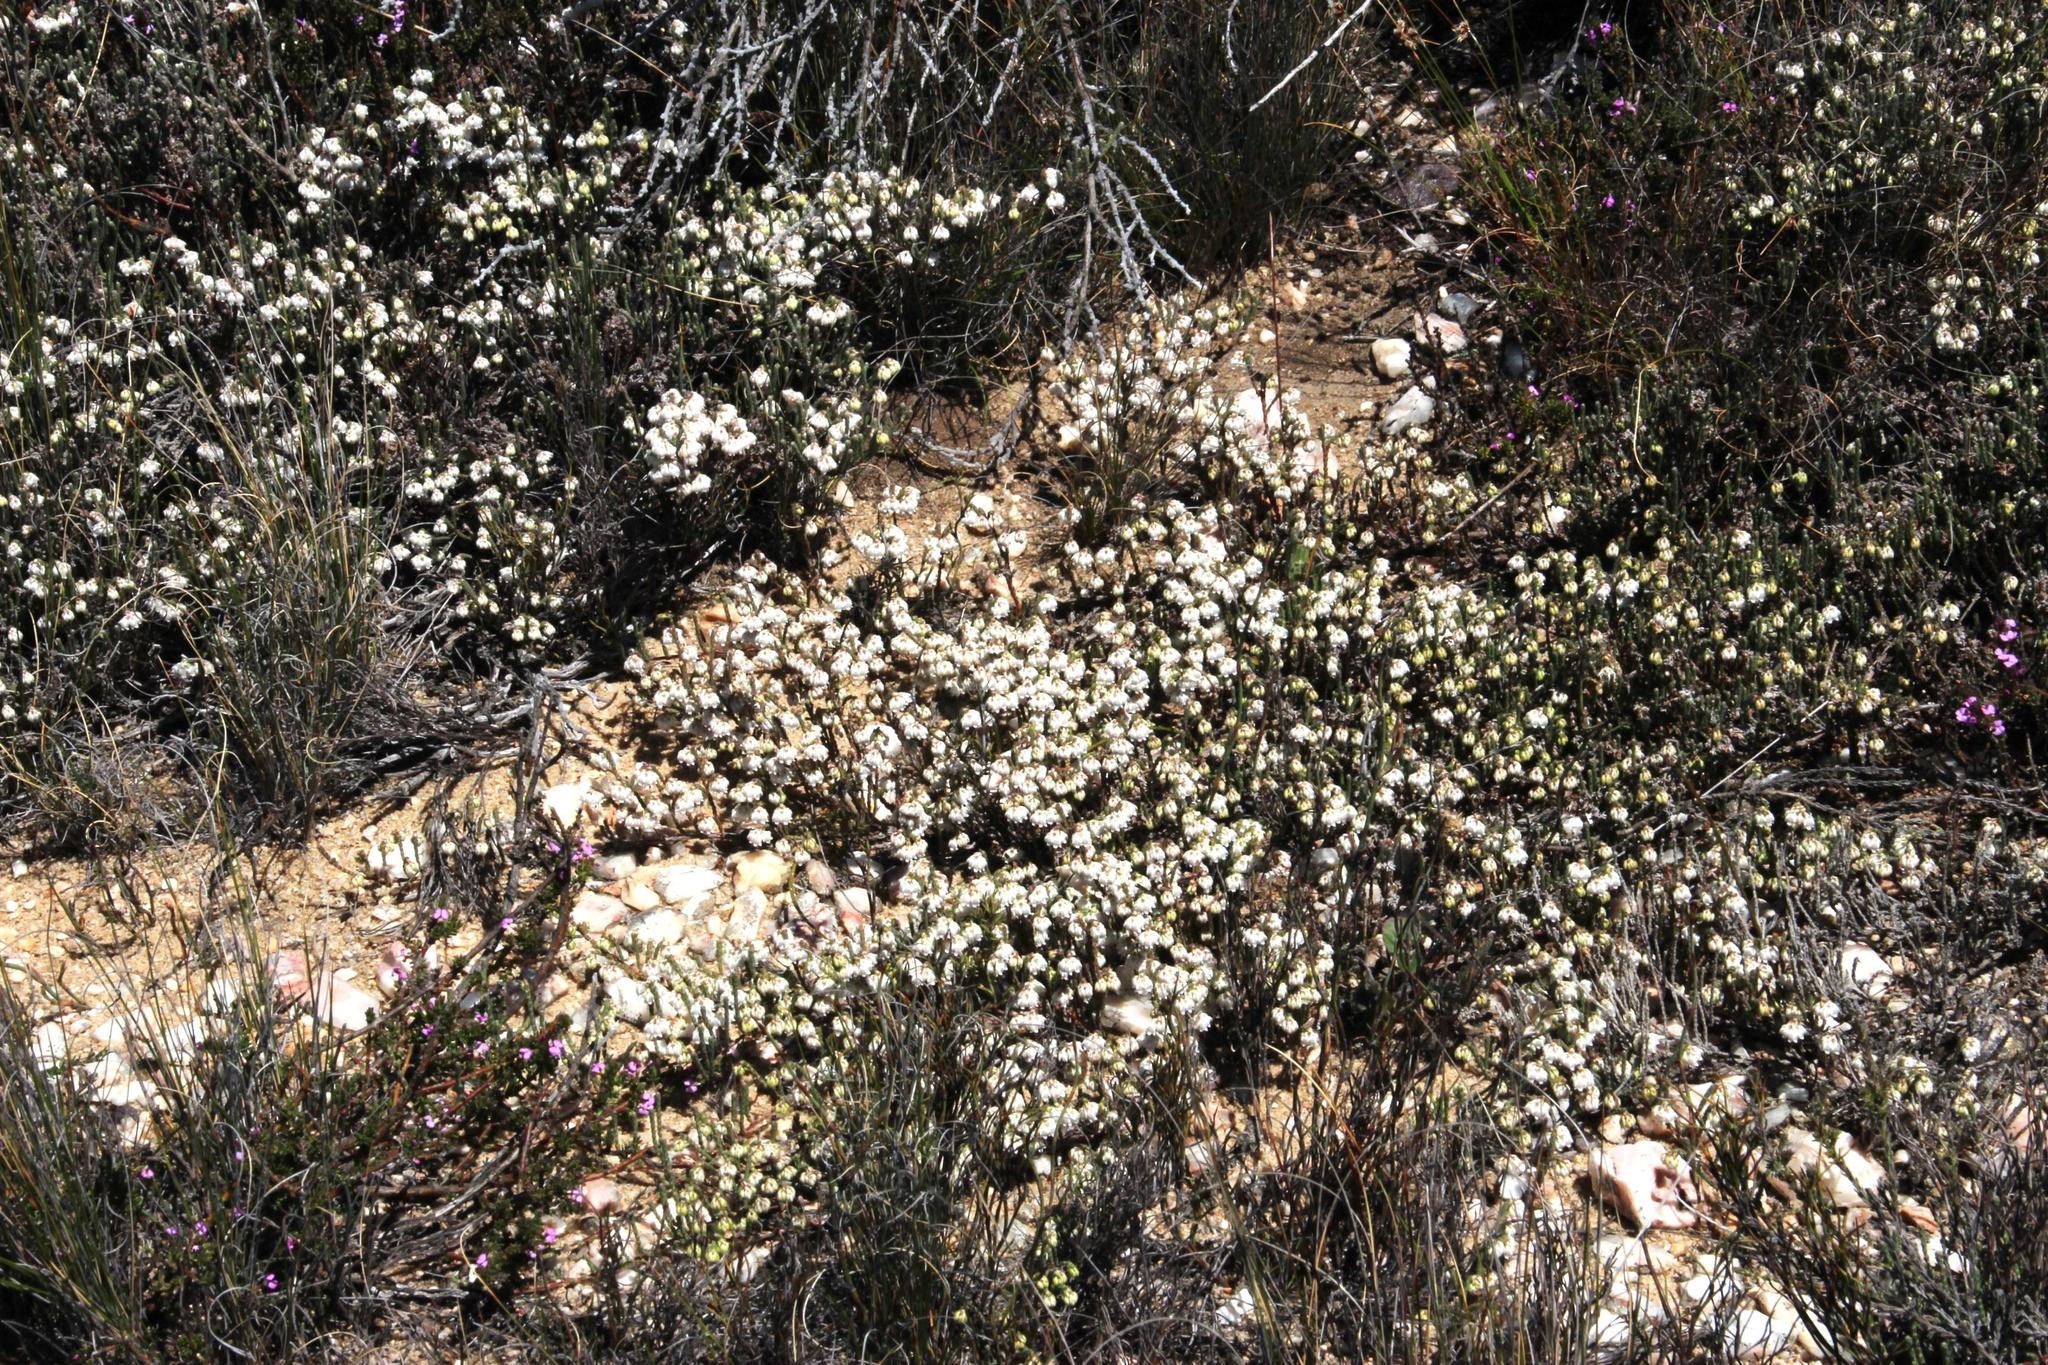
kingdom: Plantae
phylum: Tracheophyta
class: Magnoliopsida
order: Ericales
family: Ericaceae
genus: Erica
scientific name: Erica senilis
